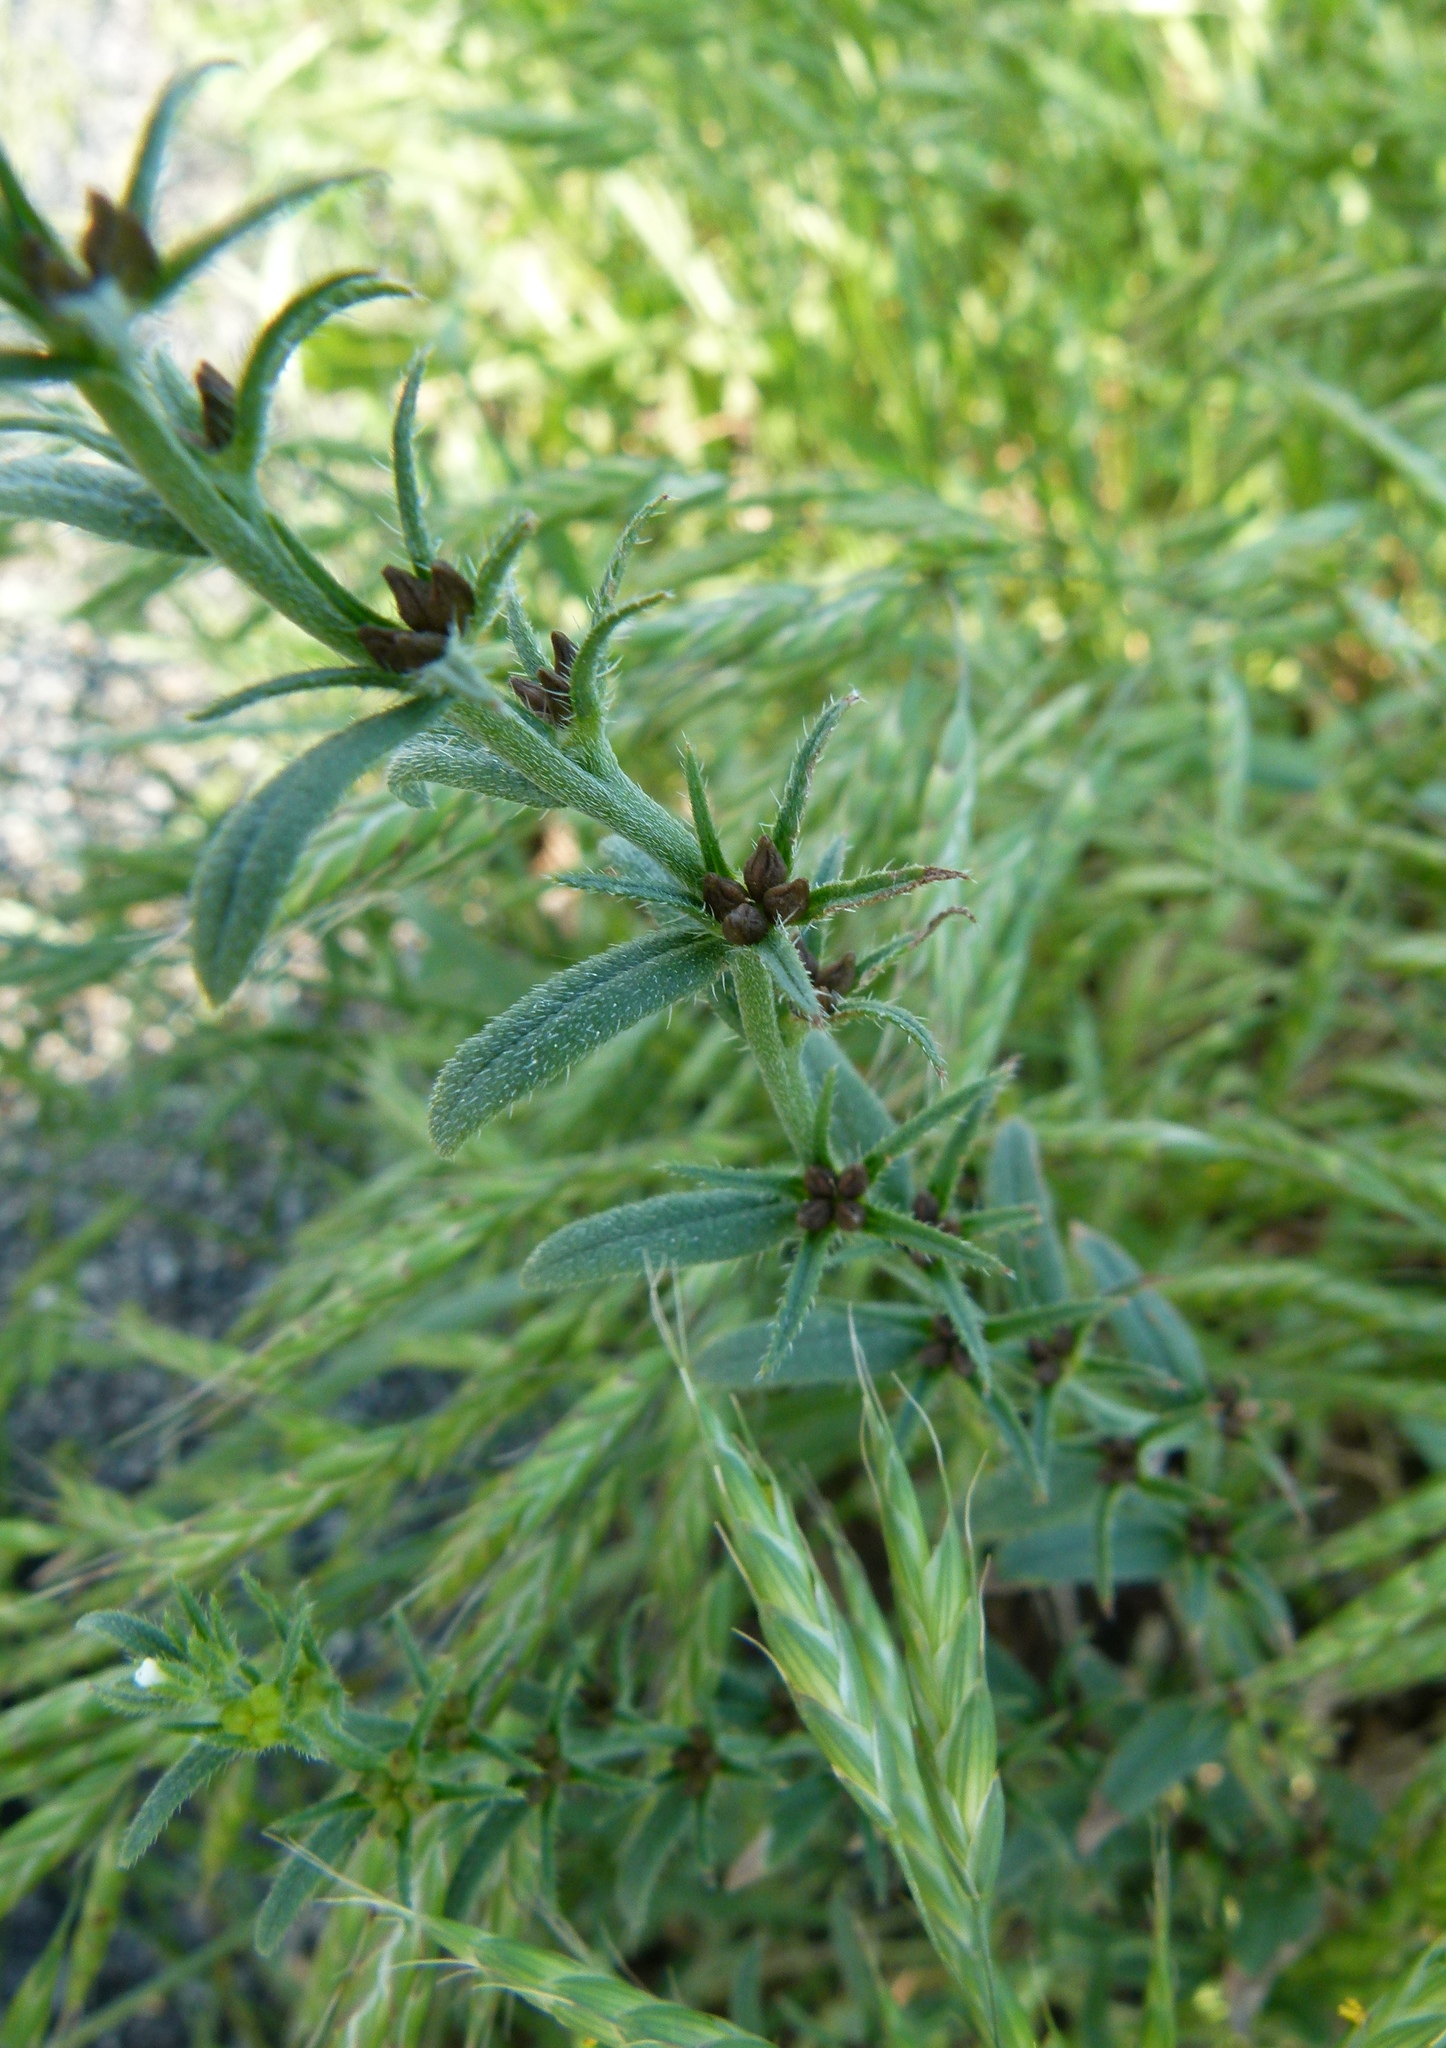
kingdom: Plantae
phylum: Tracheophyta
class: Magnoliopsida
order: Boraginales
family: Boraginaceae
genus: Buglossoides
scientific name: Buglossoides arvensis
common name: Corn gromwell
